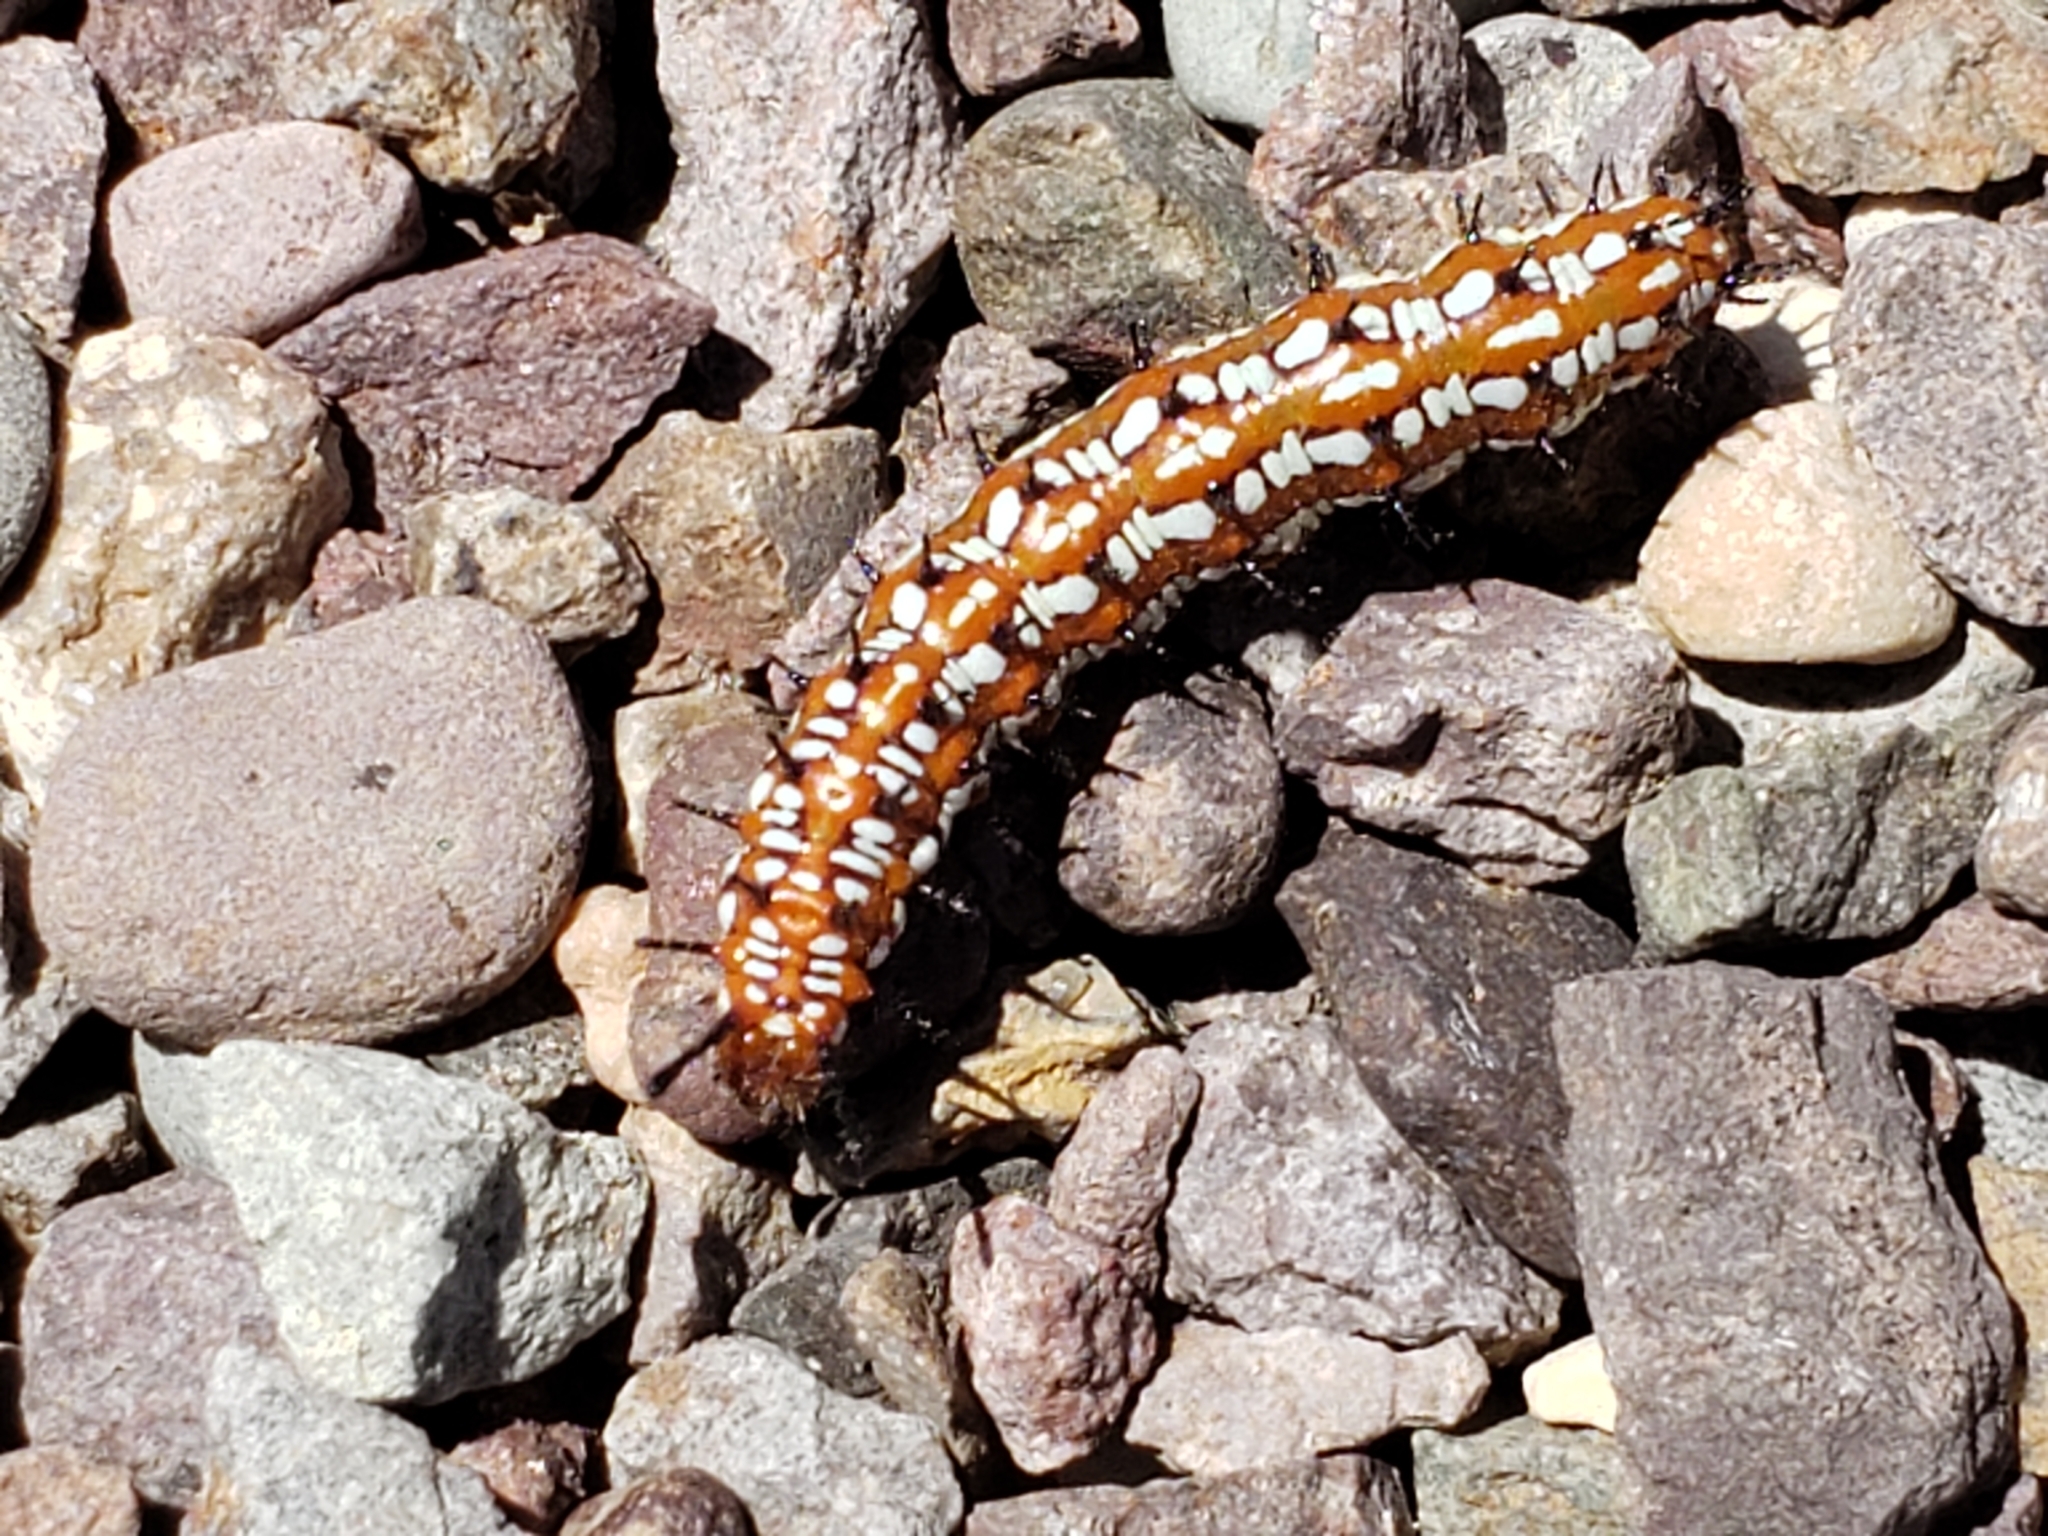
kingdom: Animalia
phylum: Arthropoda
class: Insecta
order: Lepidoptera
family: Nymphalidae
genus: Euptoieta
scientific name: Euptoieta claudia
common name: Variegated fritillary
